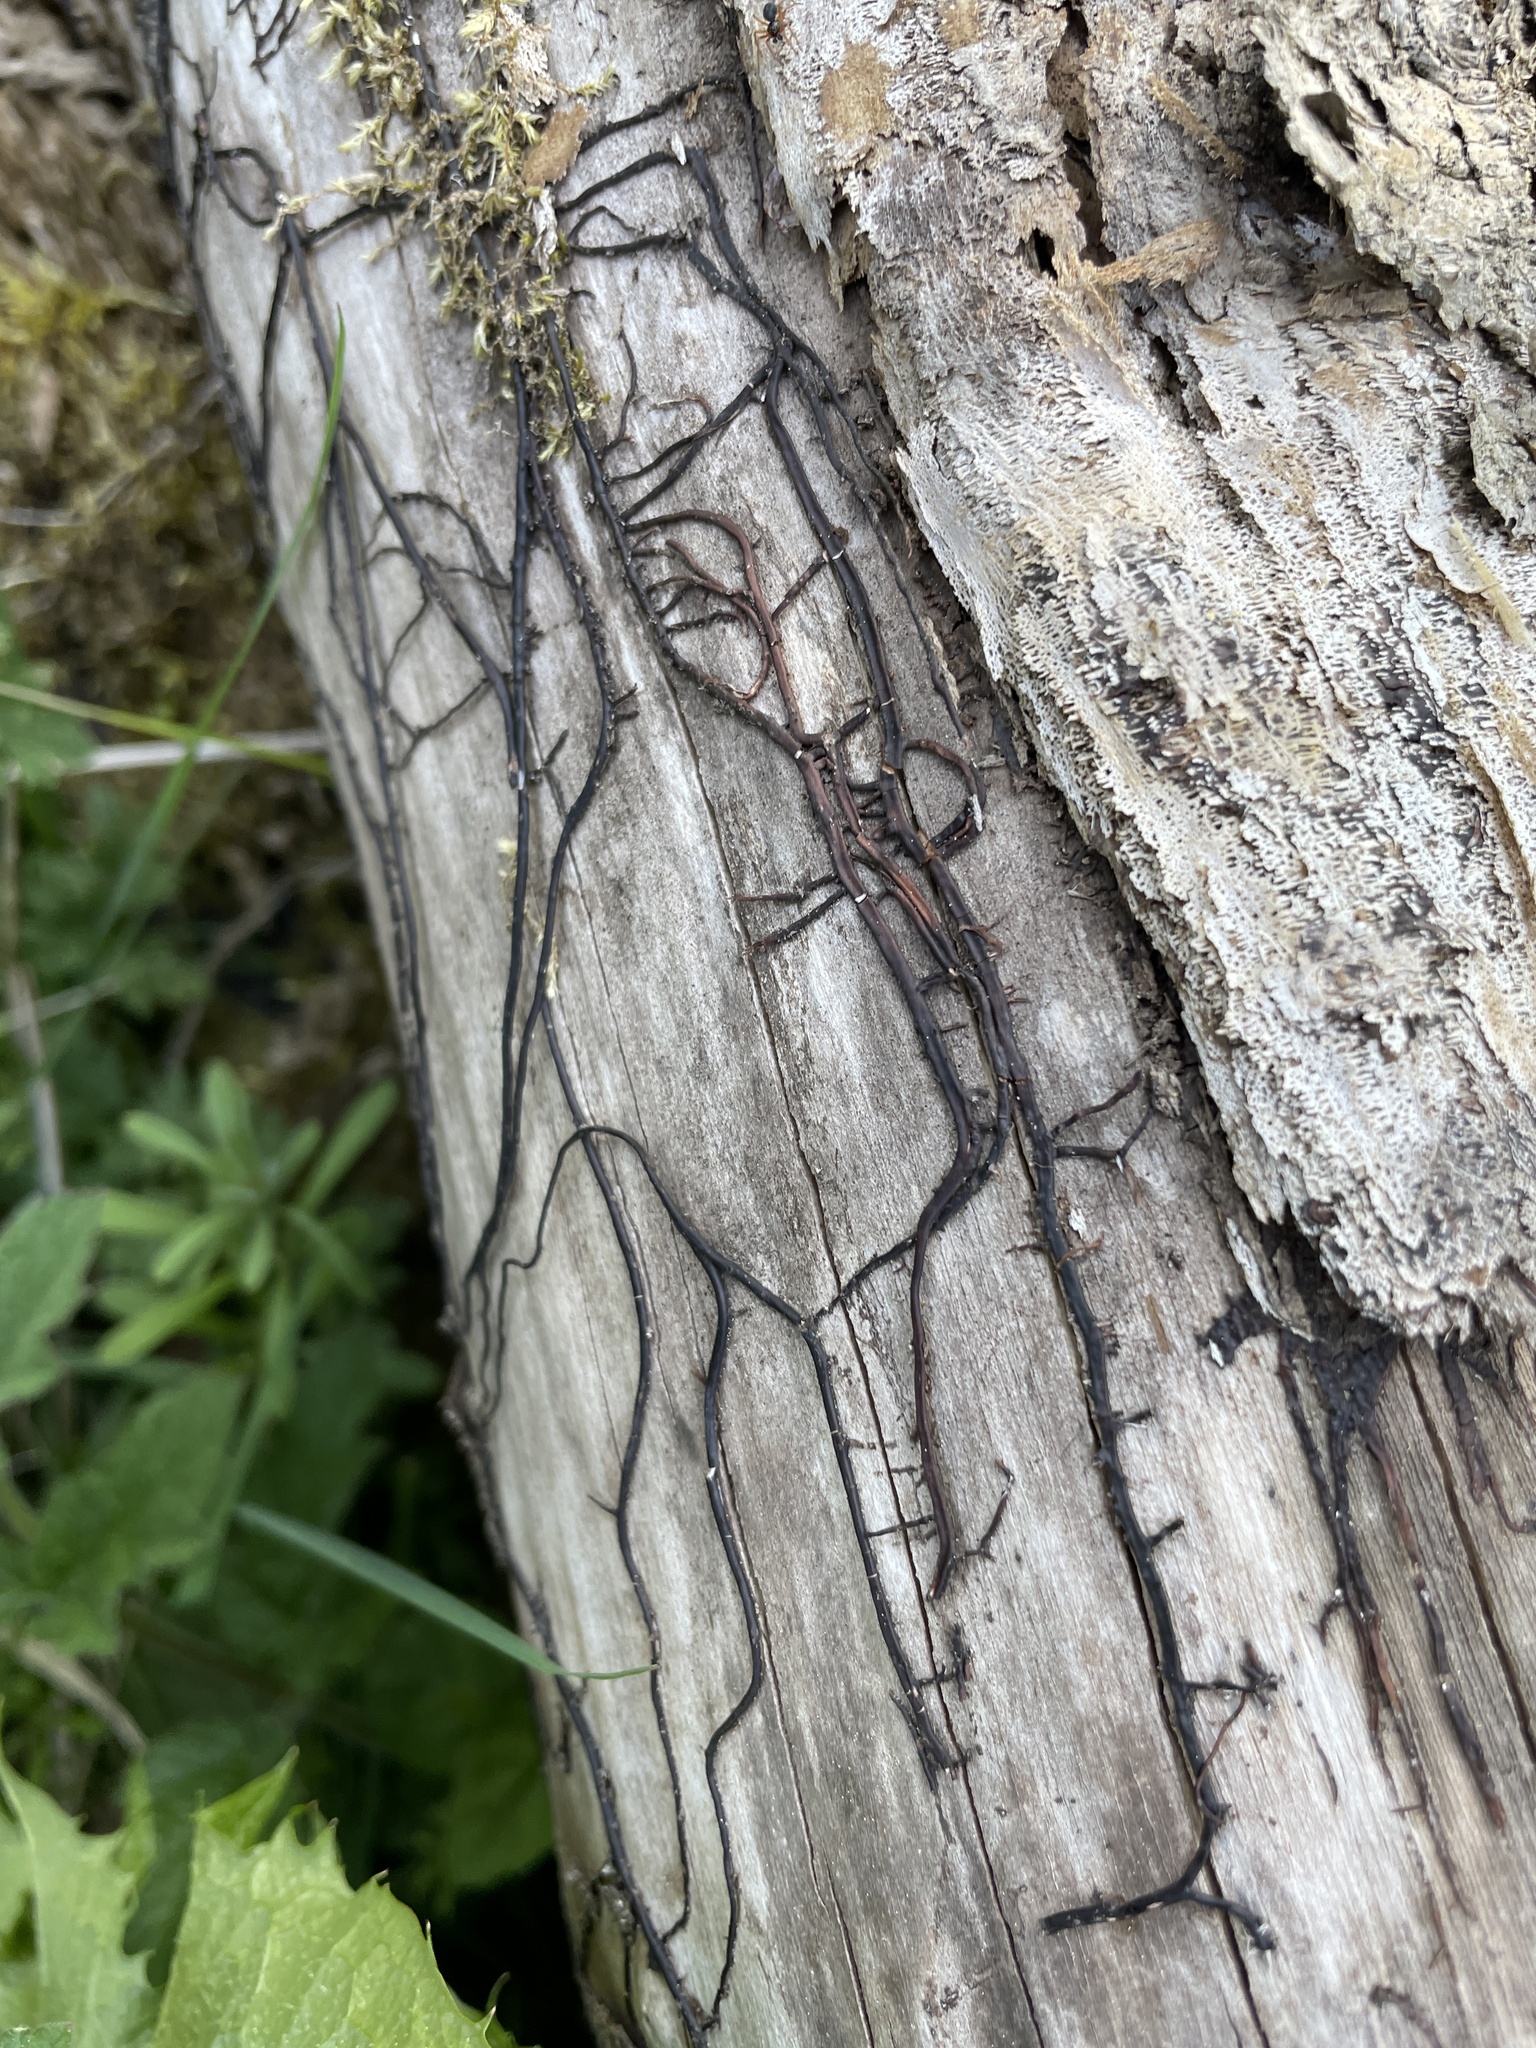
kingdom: Fungi
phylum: Basidiomycota
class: Agaricomycetes
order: Agaricales
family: Physalacriaceae
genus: Armillaria
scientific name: Armillaria mellea
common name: Honey fungus
